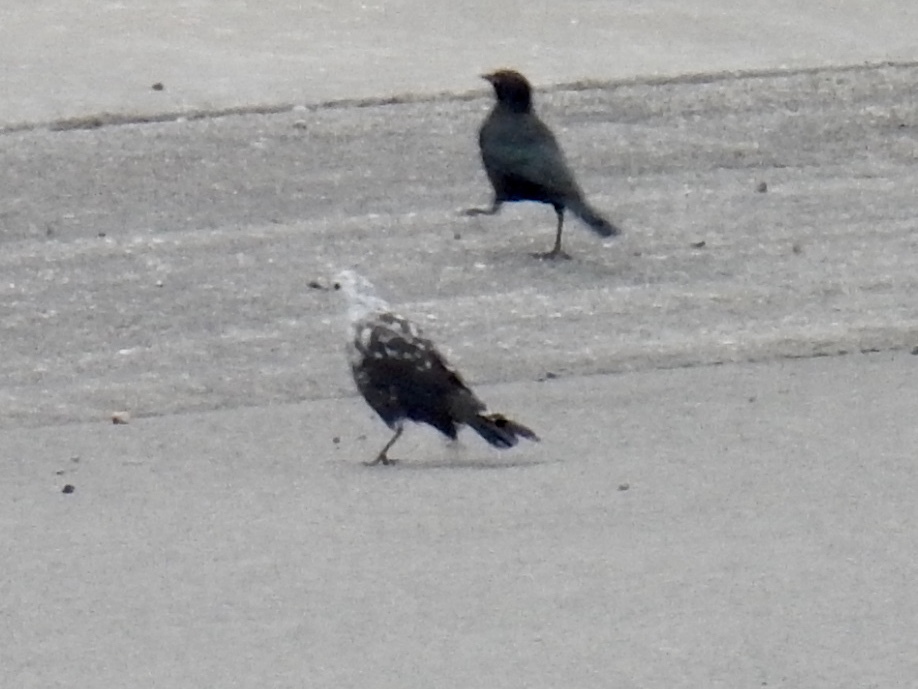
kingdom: Animalia
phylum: Chordata
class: Aves
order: Passeriformes
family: Icteridae
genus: Euphagus
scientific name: Euphagus cyanocephalus
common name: Brewer's blackbird
